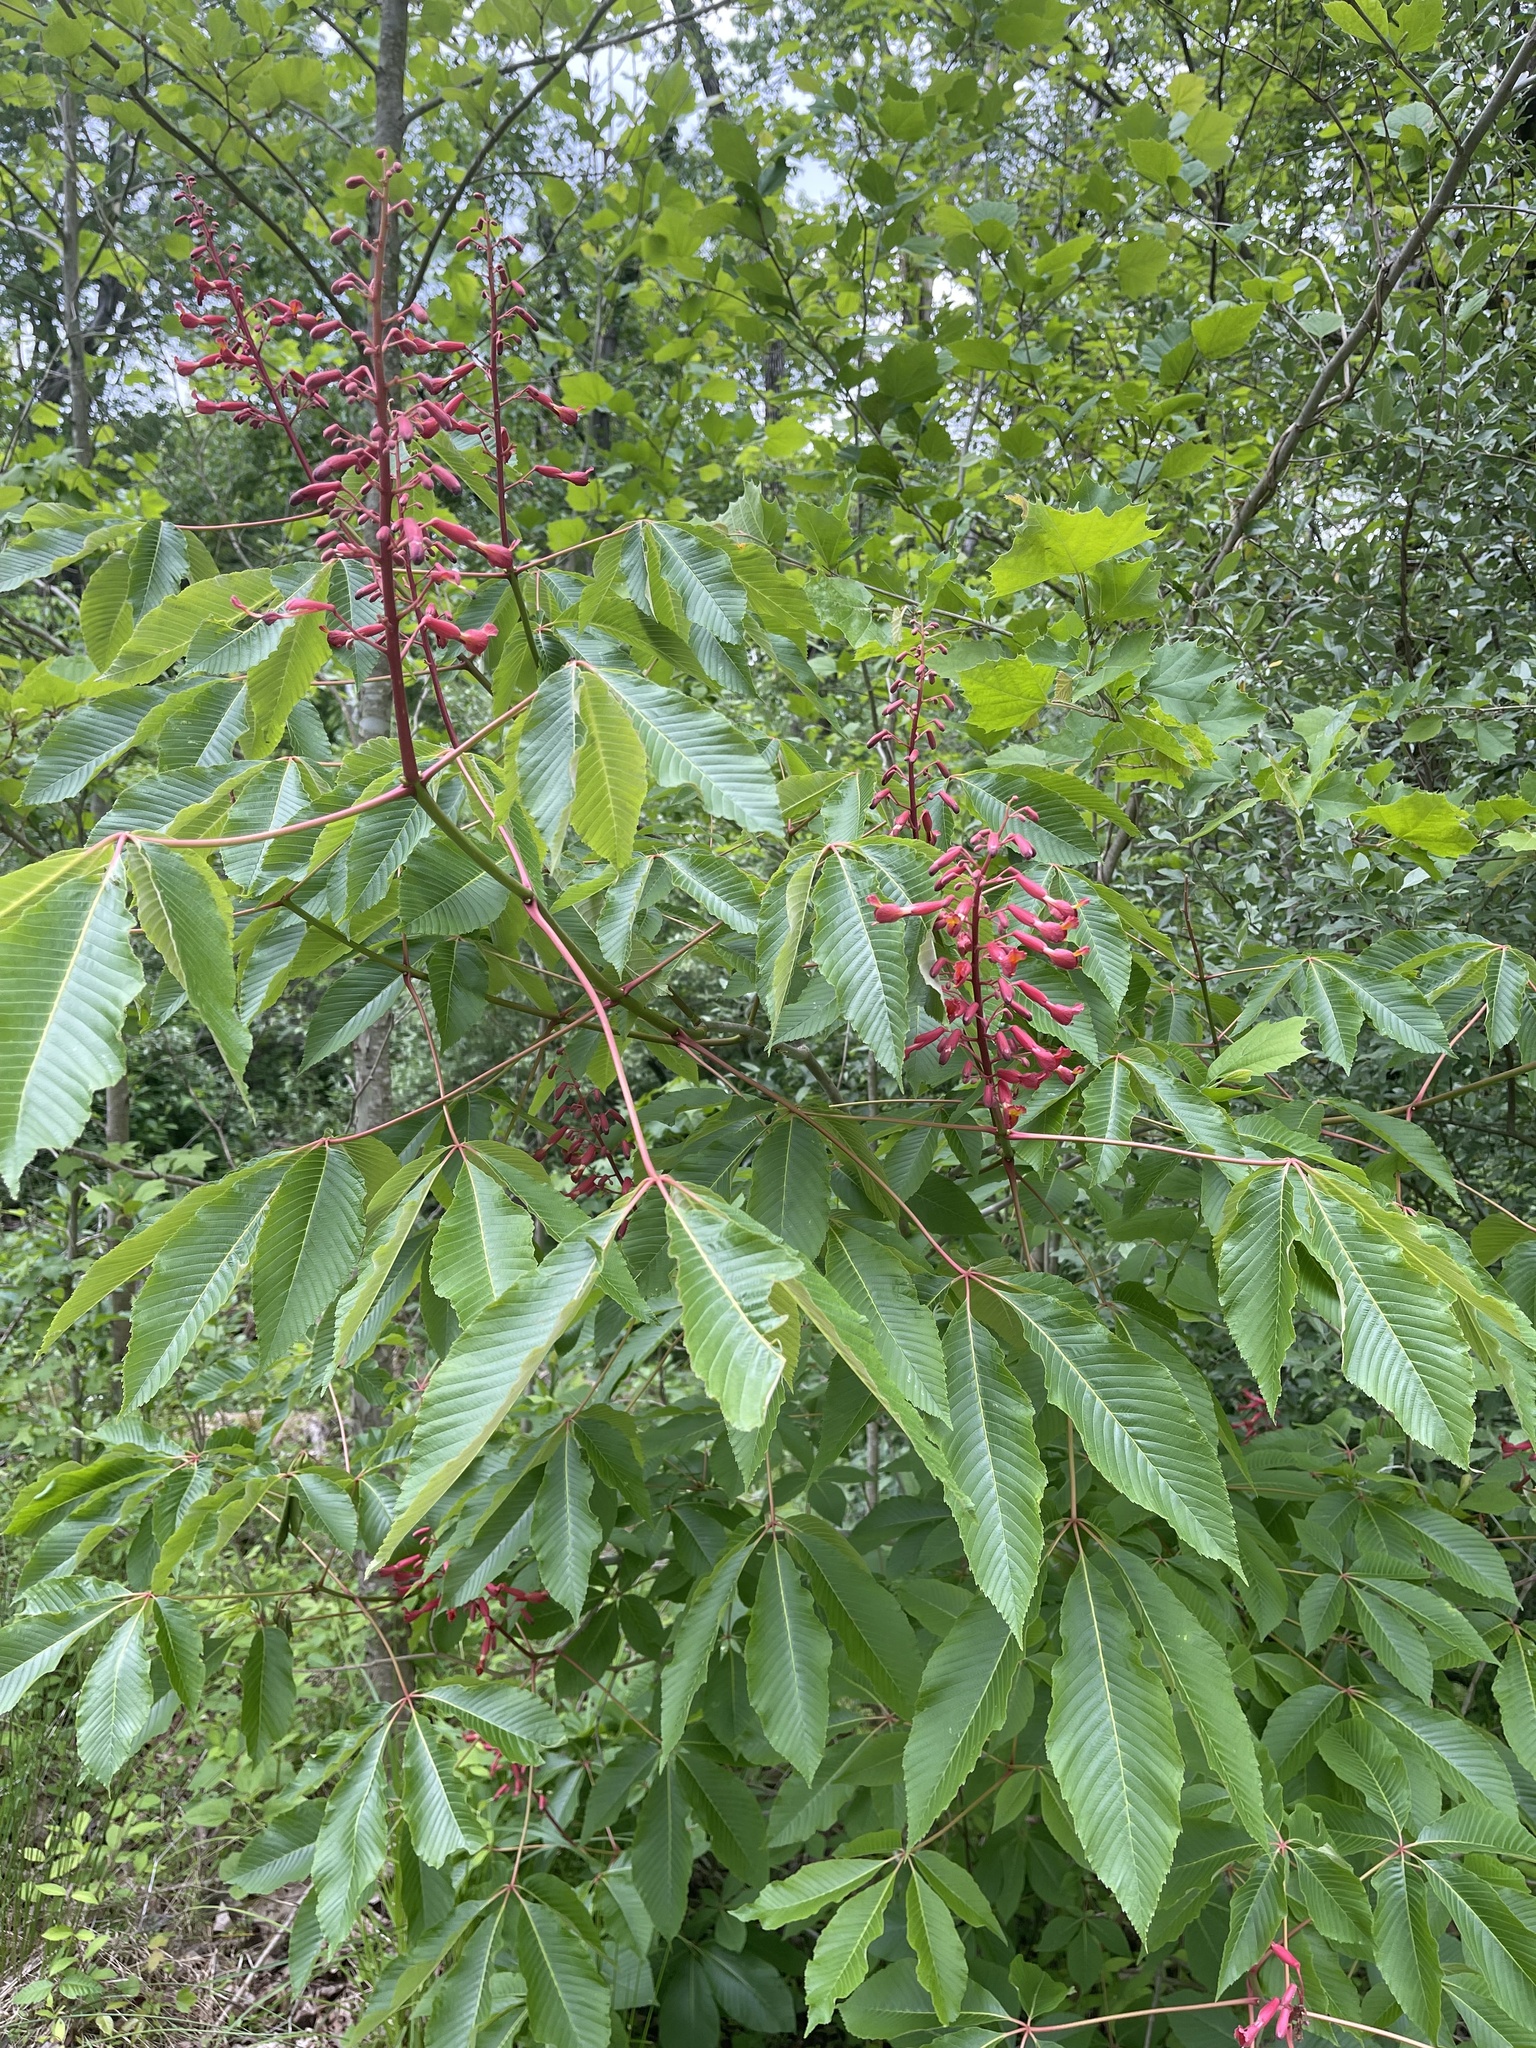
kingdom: Plantae
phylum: Tracheophyta
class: Magnoliopsida
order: Sapindales
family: Sapindaceae
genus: Aesculus
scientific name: Aesculus pavia
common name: Red buckeye
